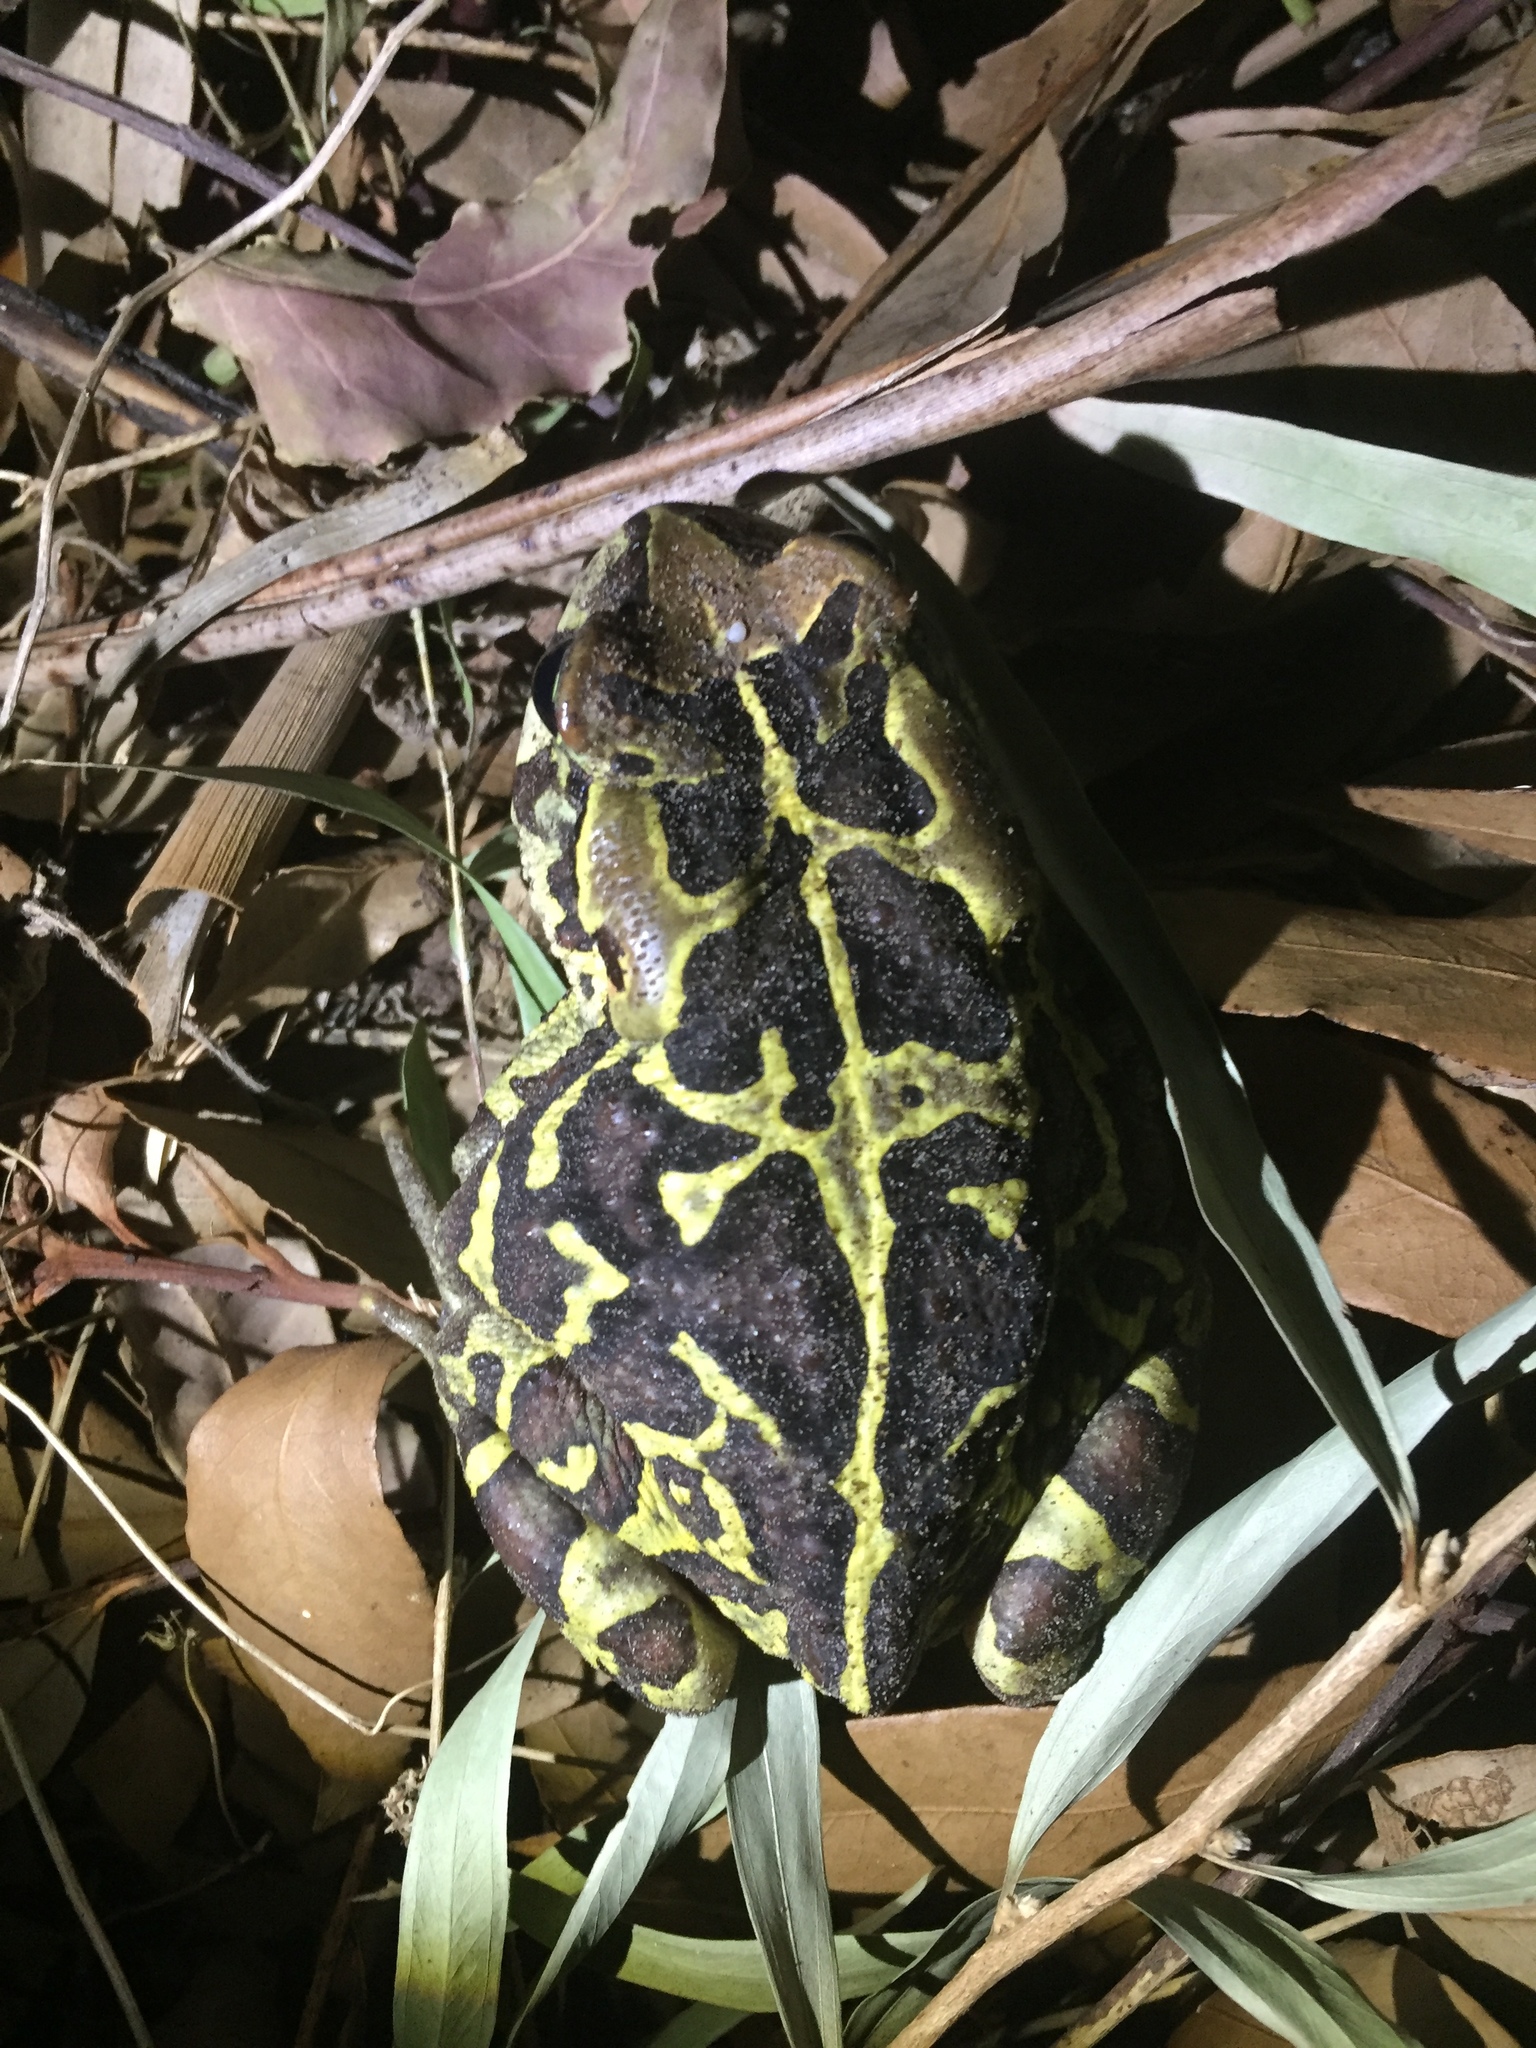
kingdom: Animalia
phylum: Chordata
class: Amphibia
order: Anura
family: Bufonidae
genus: Sclerophrys
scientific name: Sclerophrys pantherina
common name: Panther toad
